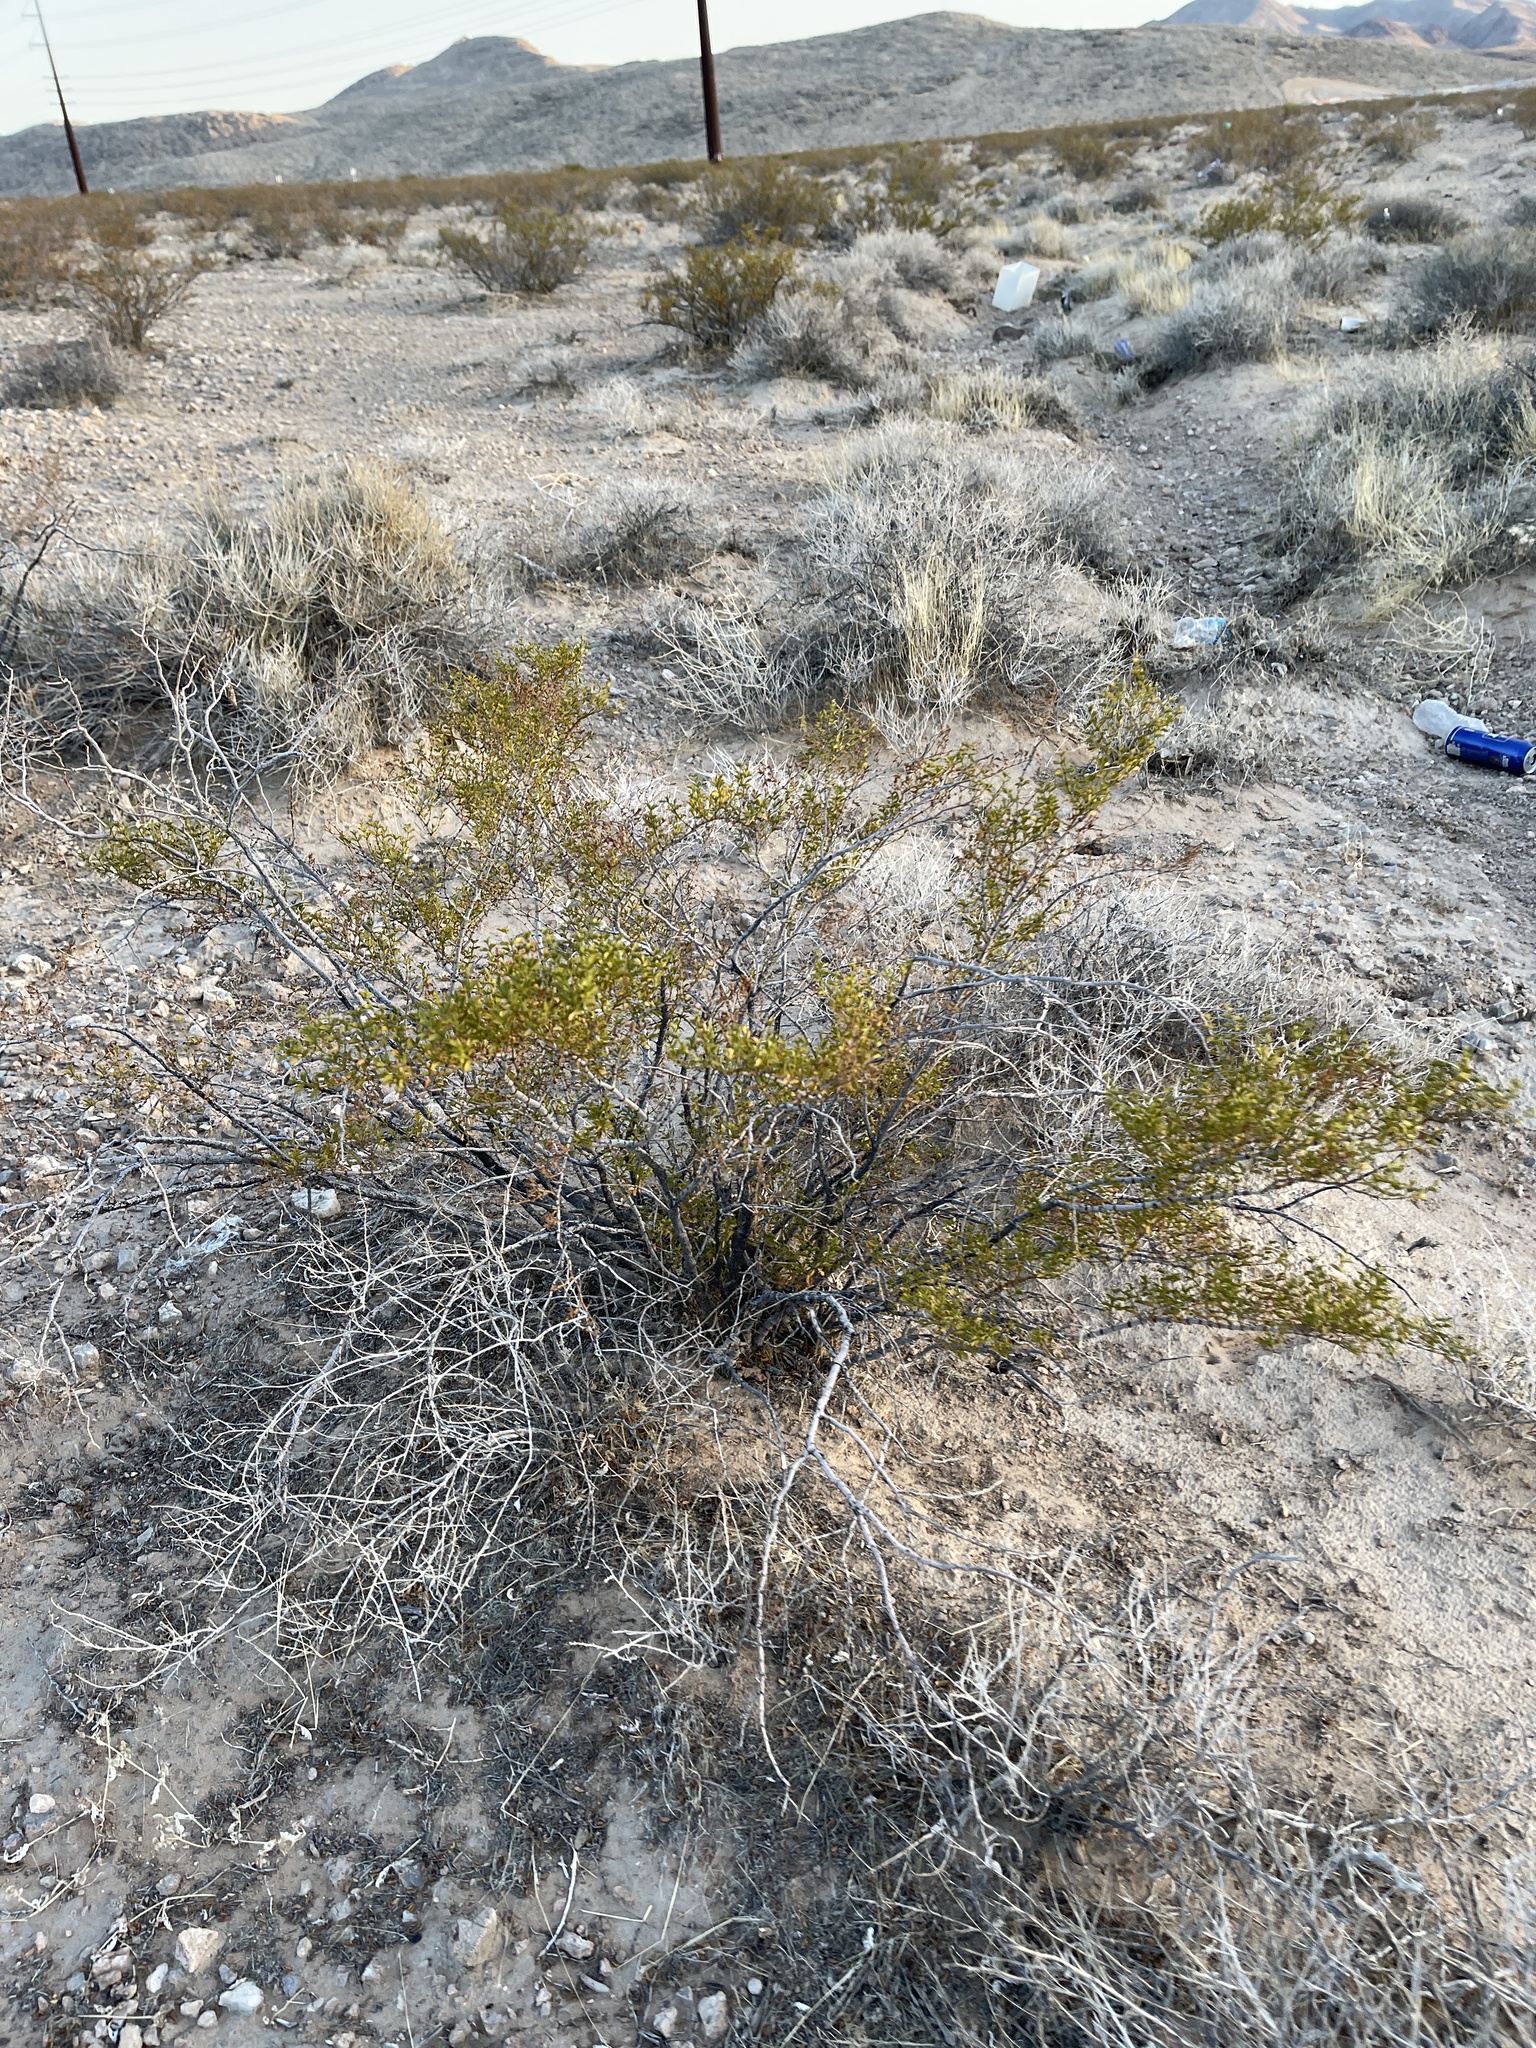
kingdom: Plantae
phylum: Tracheophyta
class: Magnoliopsida
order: Zygophyllales
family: Zygophyllaceae
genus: Larrea
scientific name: Larrea tridentata
